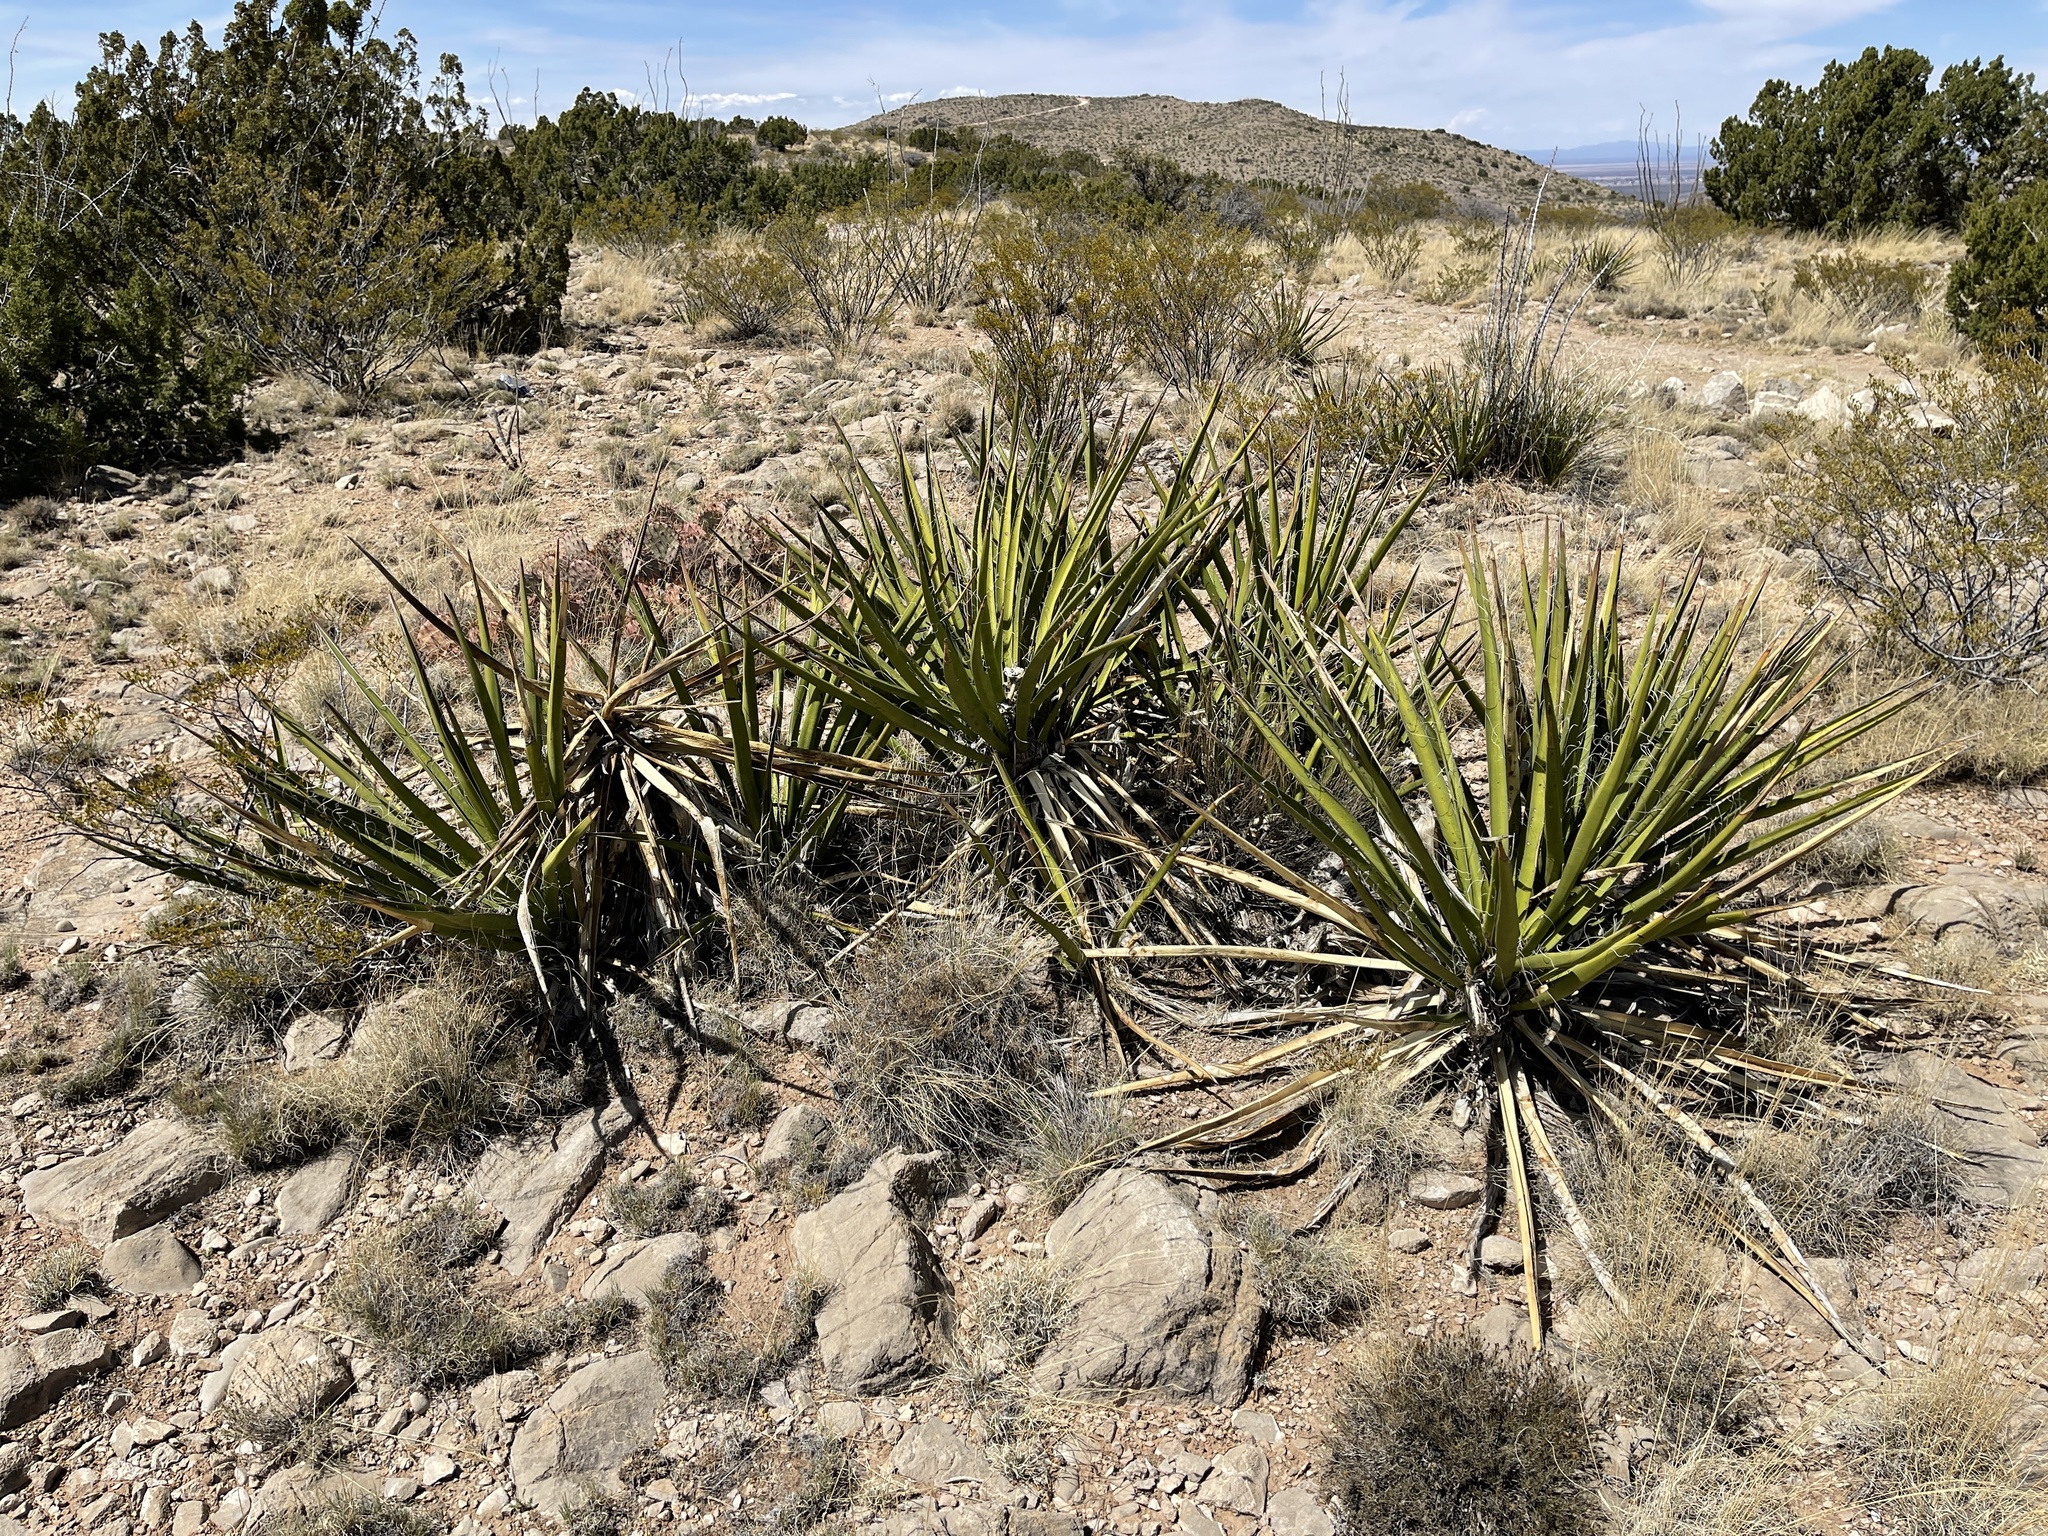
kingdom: Plantae
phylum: Tracheophyta
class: Liliopsida
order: Asparagales
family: Asparagaceae
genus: Yucca
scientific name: Yucca baccata
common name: Banana yucca
